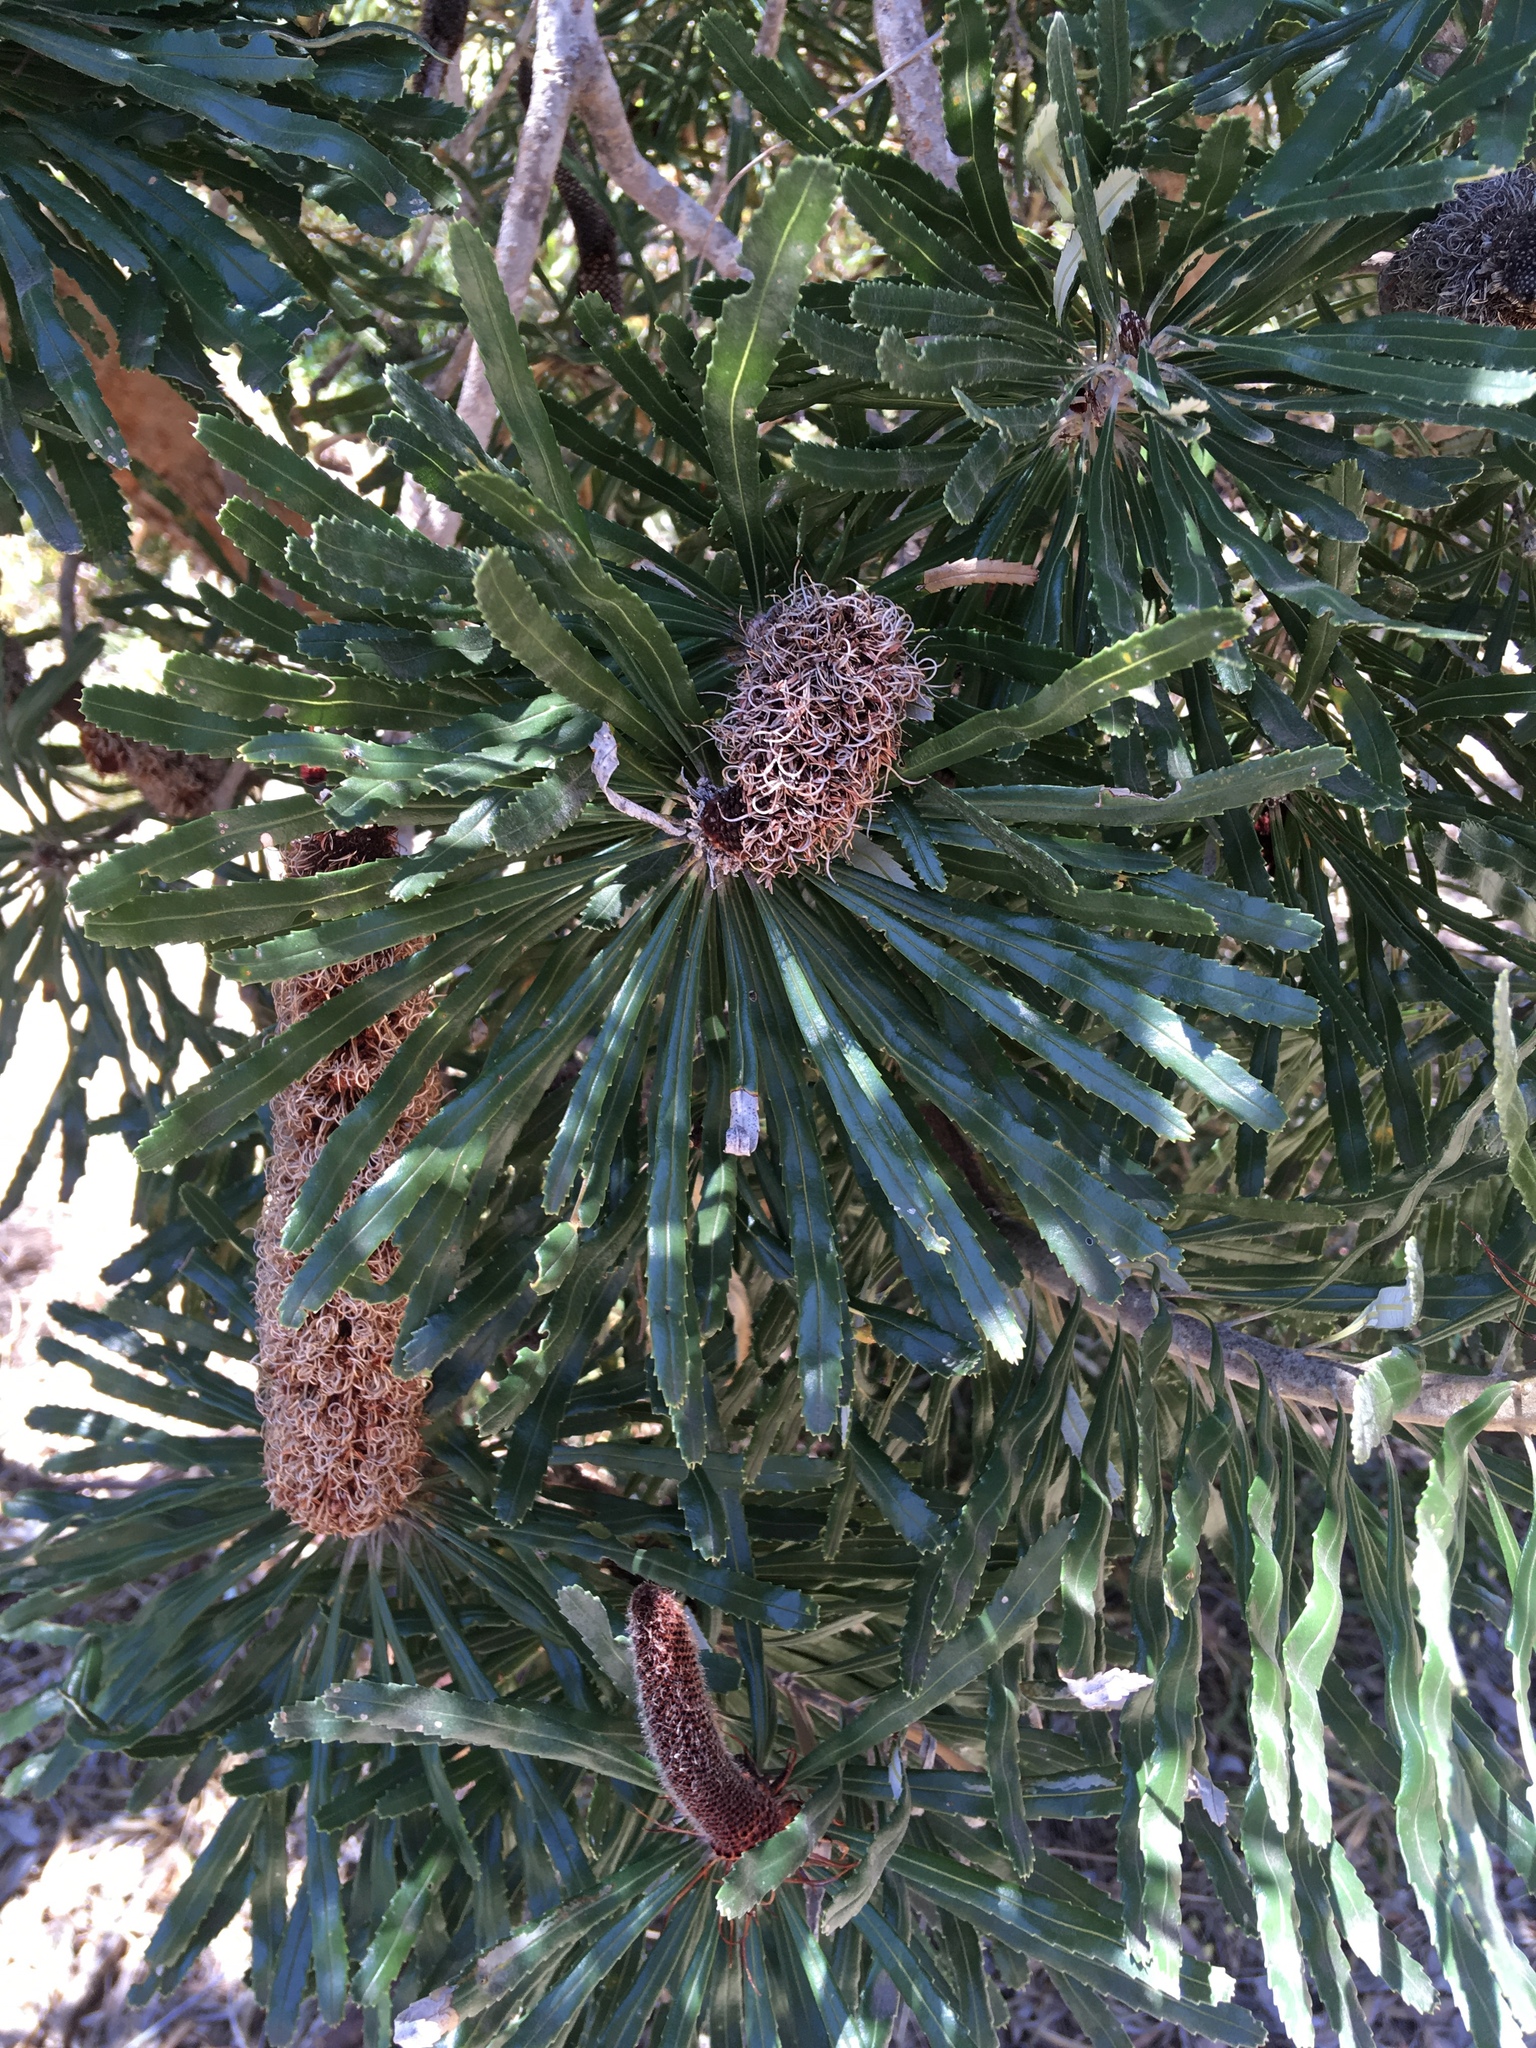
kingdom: Plantae
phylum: Tracheophyta
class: Magnoliopsida
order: Proteales
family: Proteaceae
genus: Banksia
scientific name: Banksia attenuata
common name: Coast banksia
